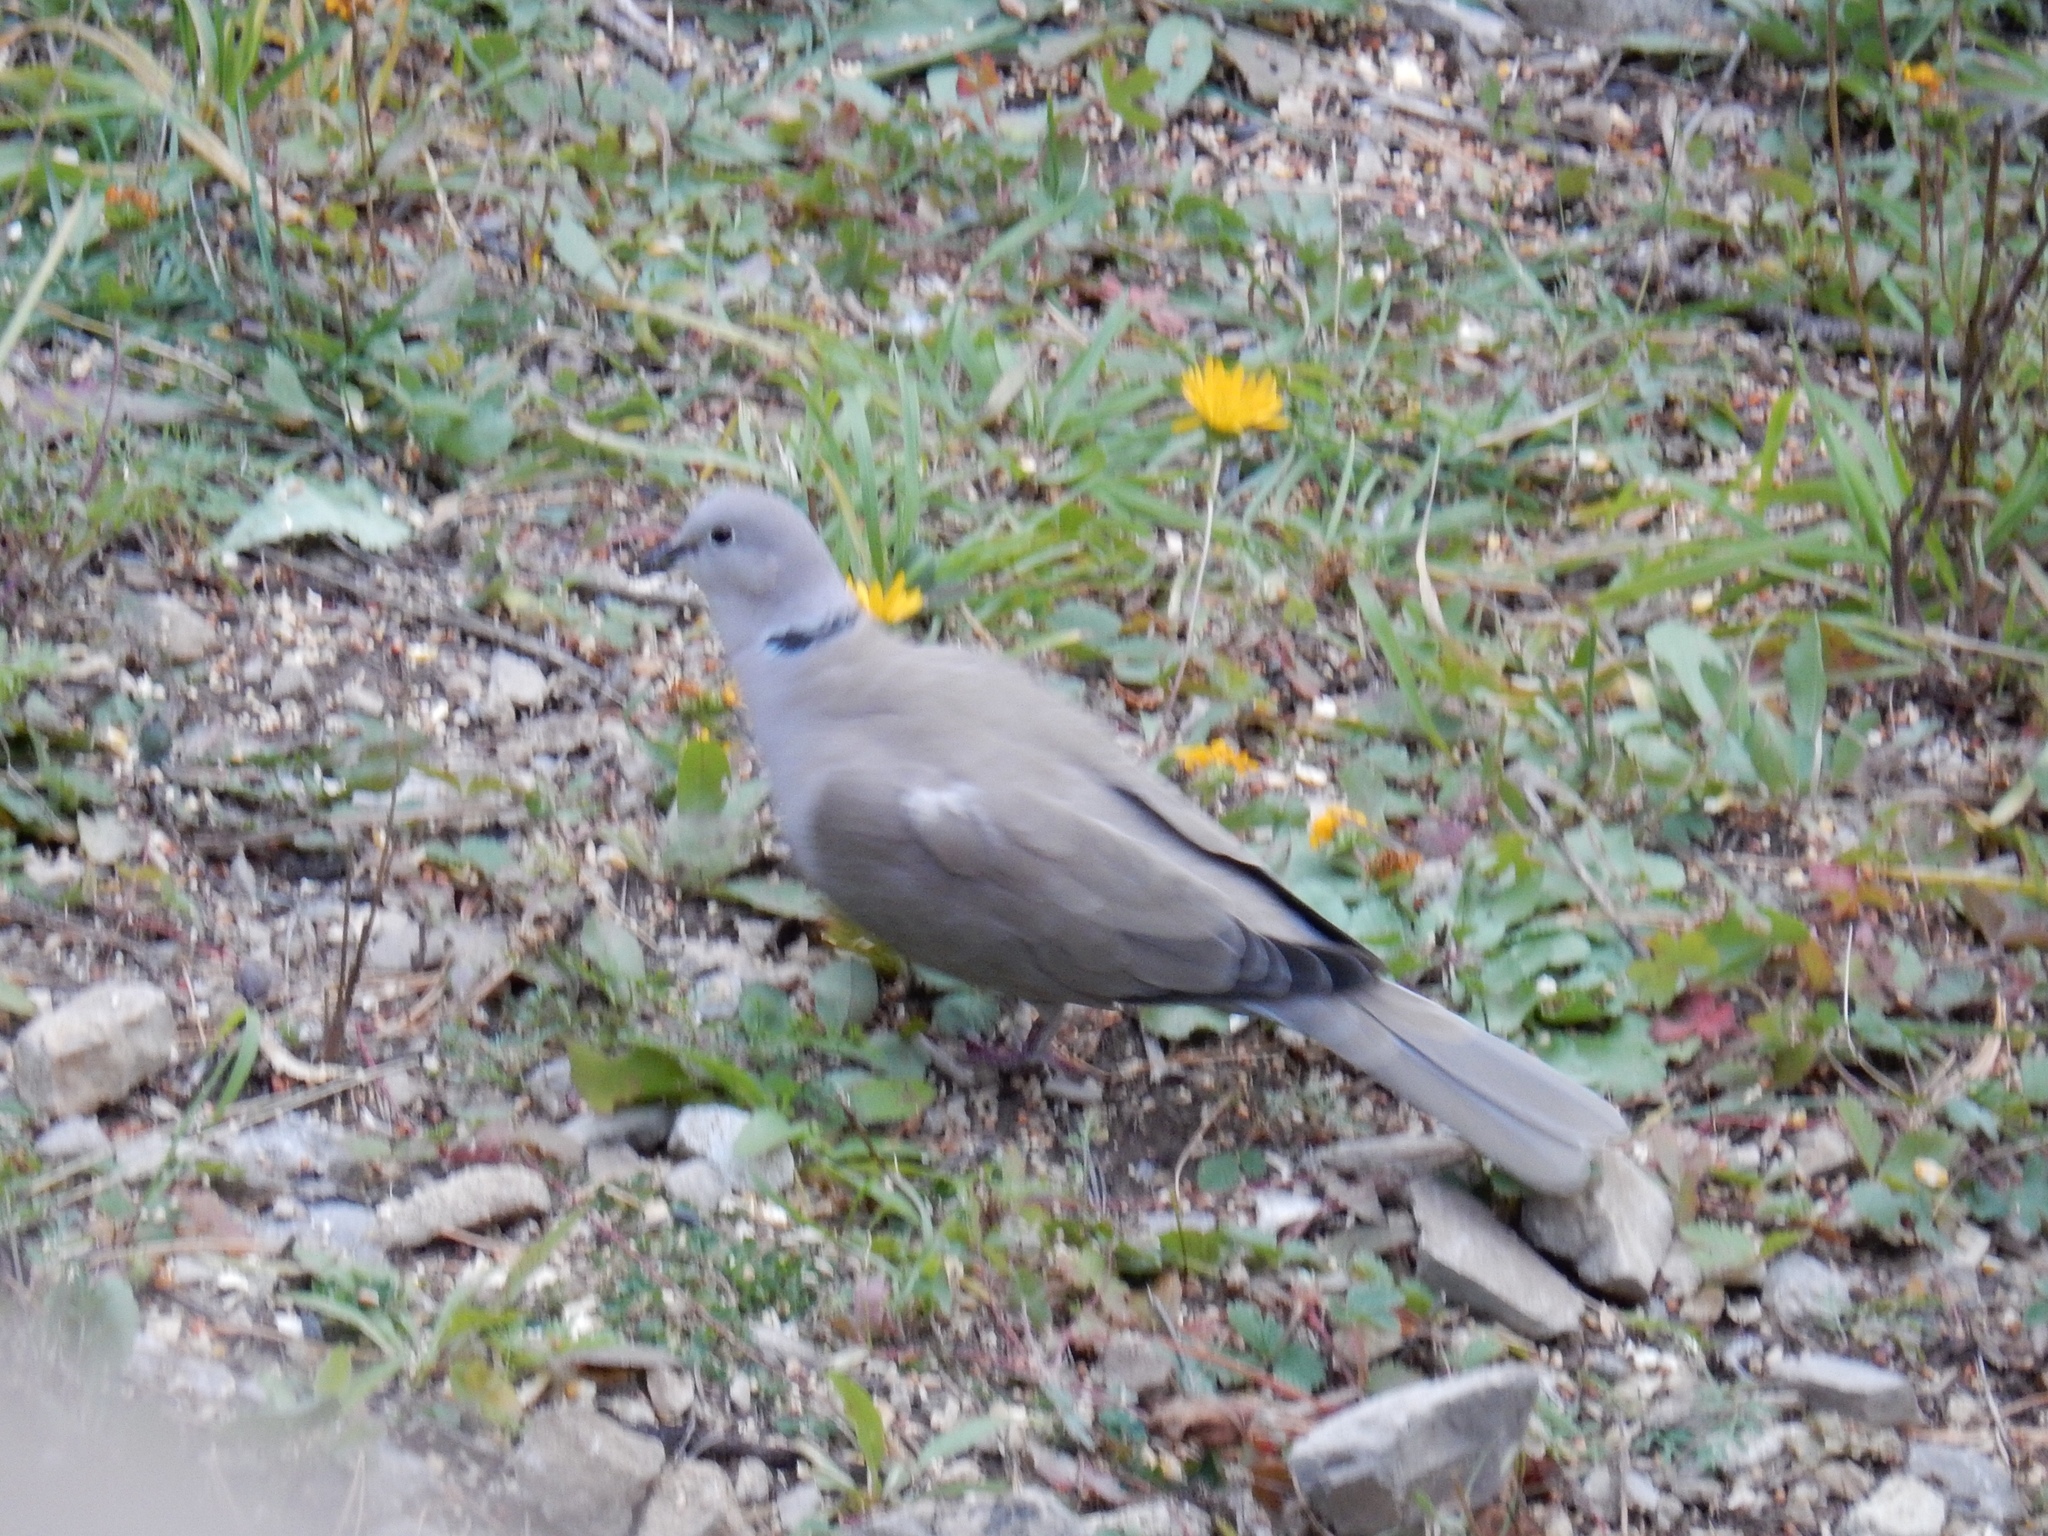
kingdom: Animalia
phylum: Chordata
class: Aves
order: Columbiformes
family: Columbidae
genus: Streptopelia
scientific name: Streptopelia decaocto
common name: Eurasian collared dove
